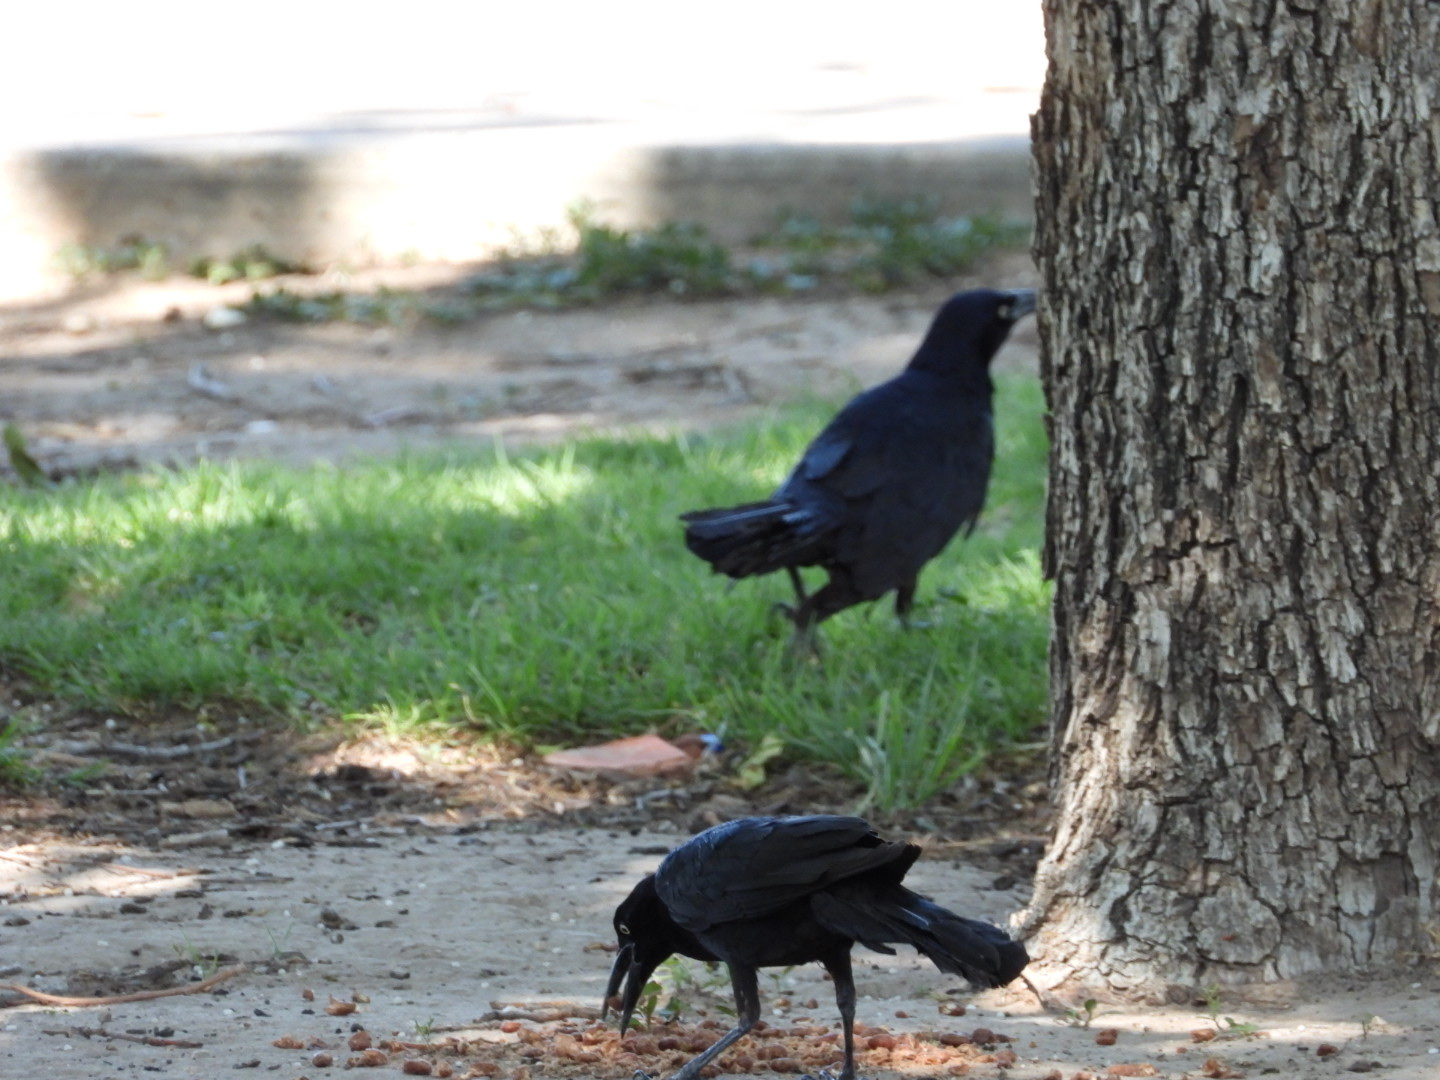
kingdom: Animalia
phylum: Chordata
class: Aves
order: Passeriformes
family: Icteridae
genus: Quiscalus
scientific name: Quiscalus mexicanus
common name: Great-tailed grackle
